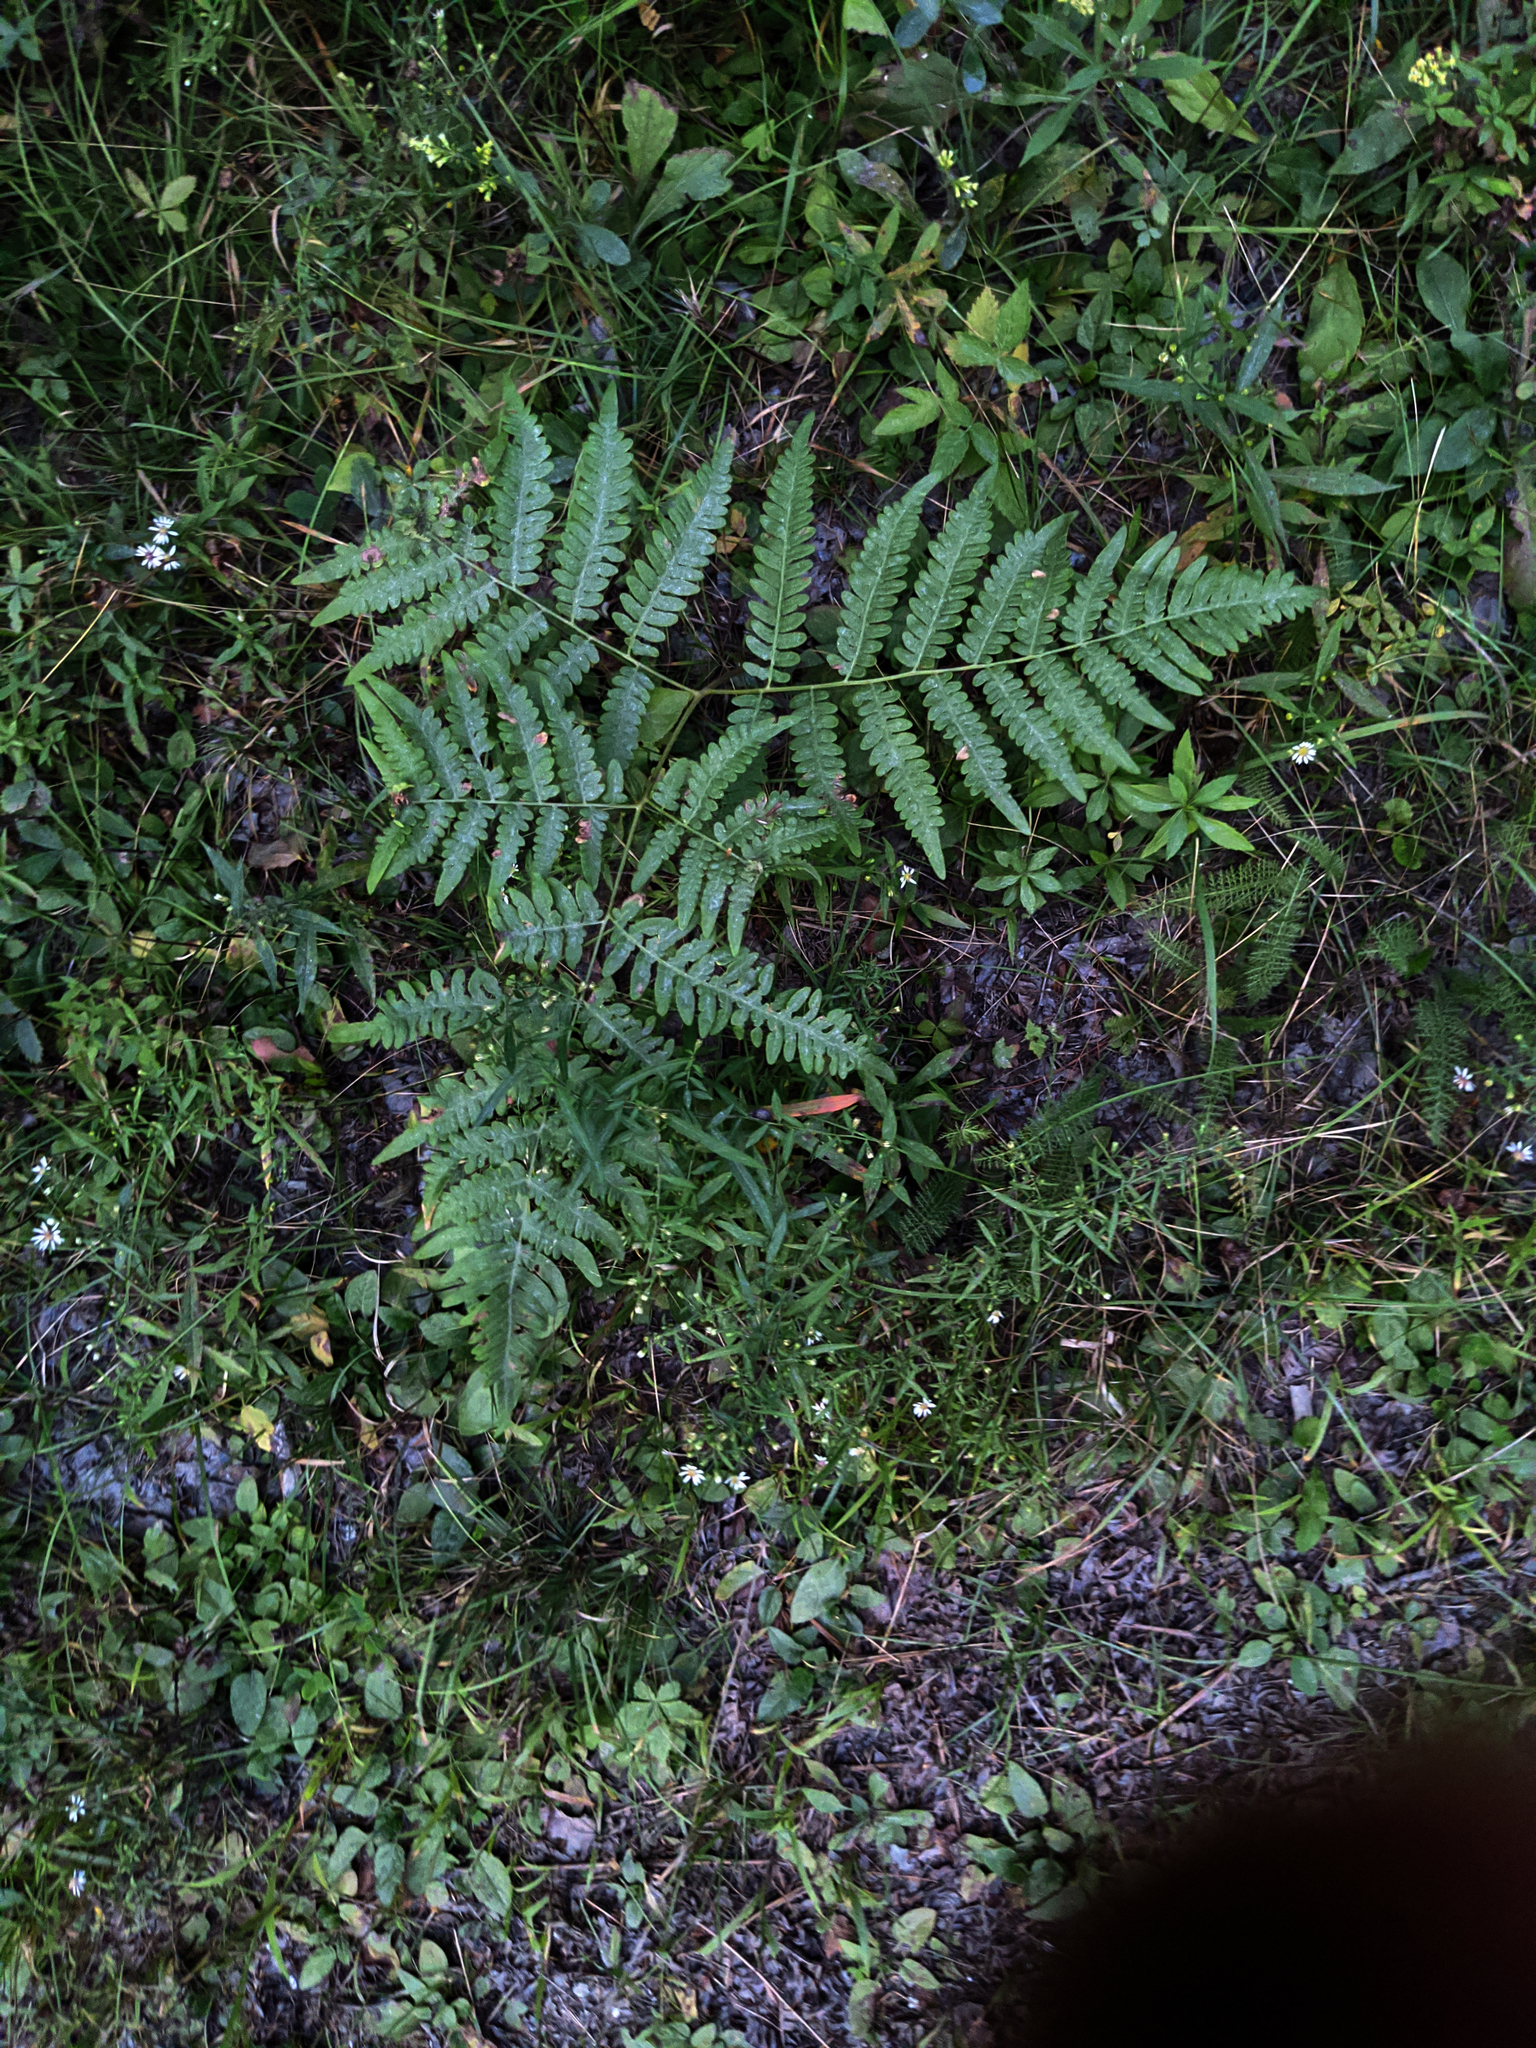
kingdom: Plantae
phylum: Tracheophyta
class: Polypodiopsida
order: Polypodiales
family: Dennstaedtiaceae
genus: Pteridium
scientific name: Pteridium aquilinum
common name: Bracken
